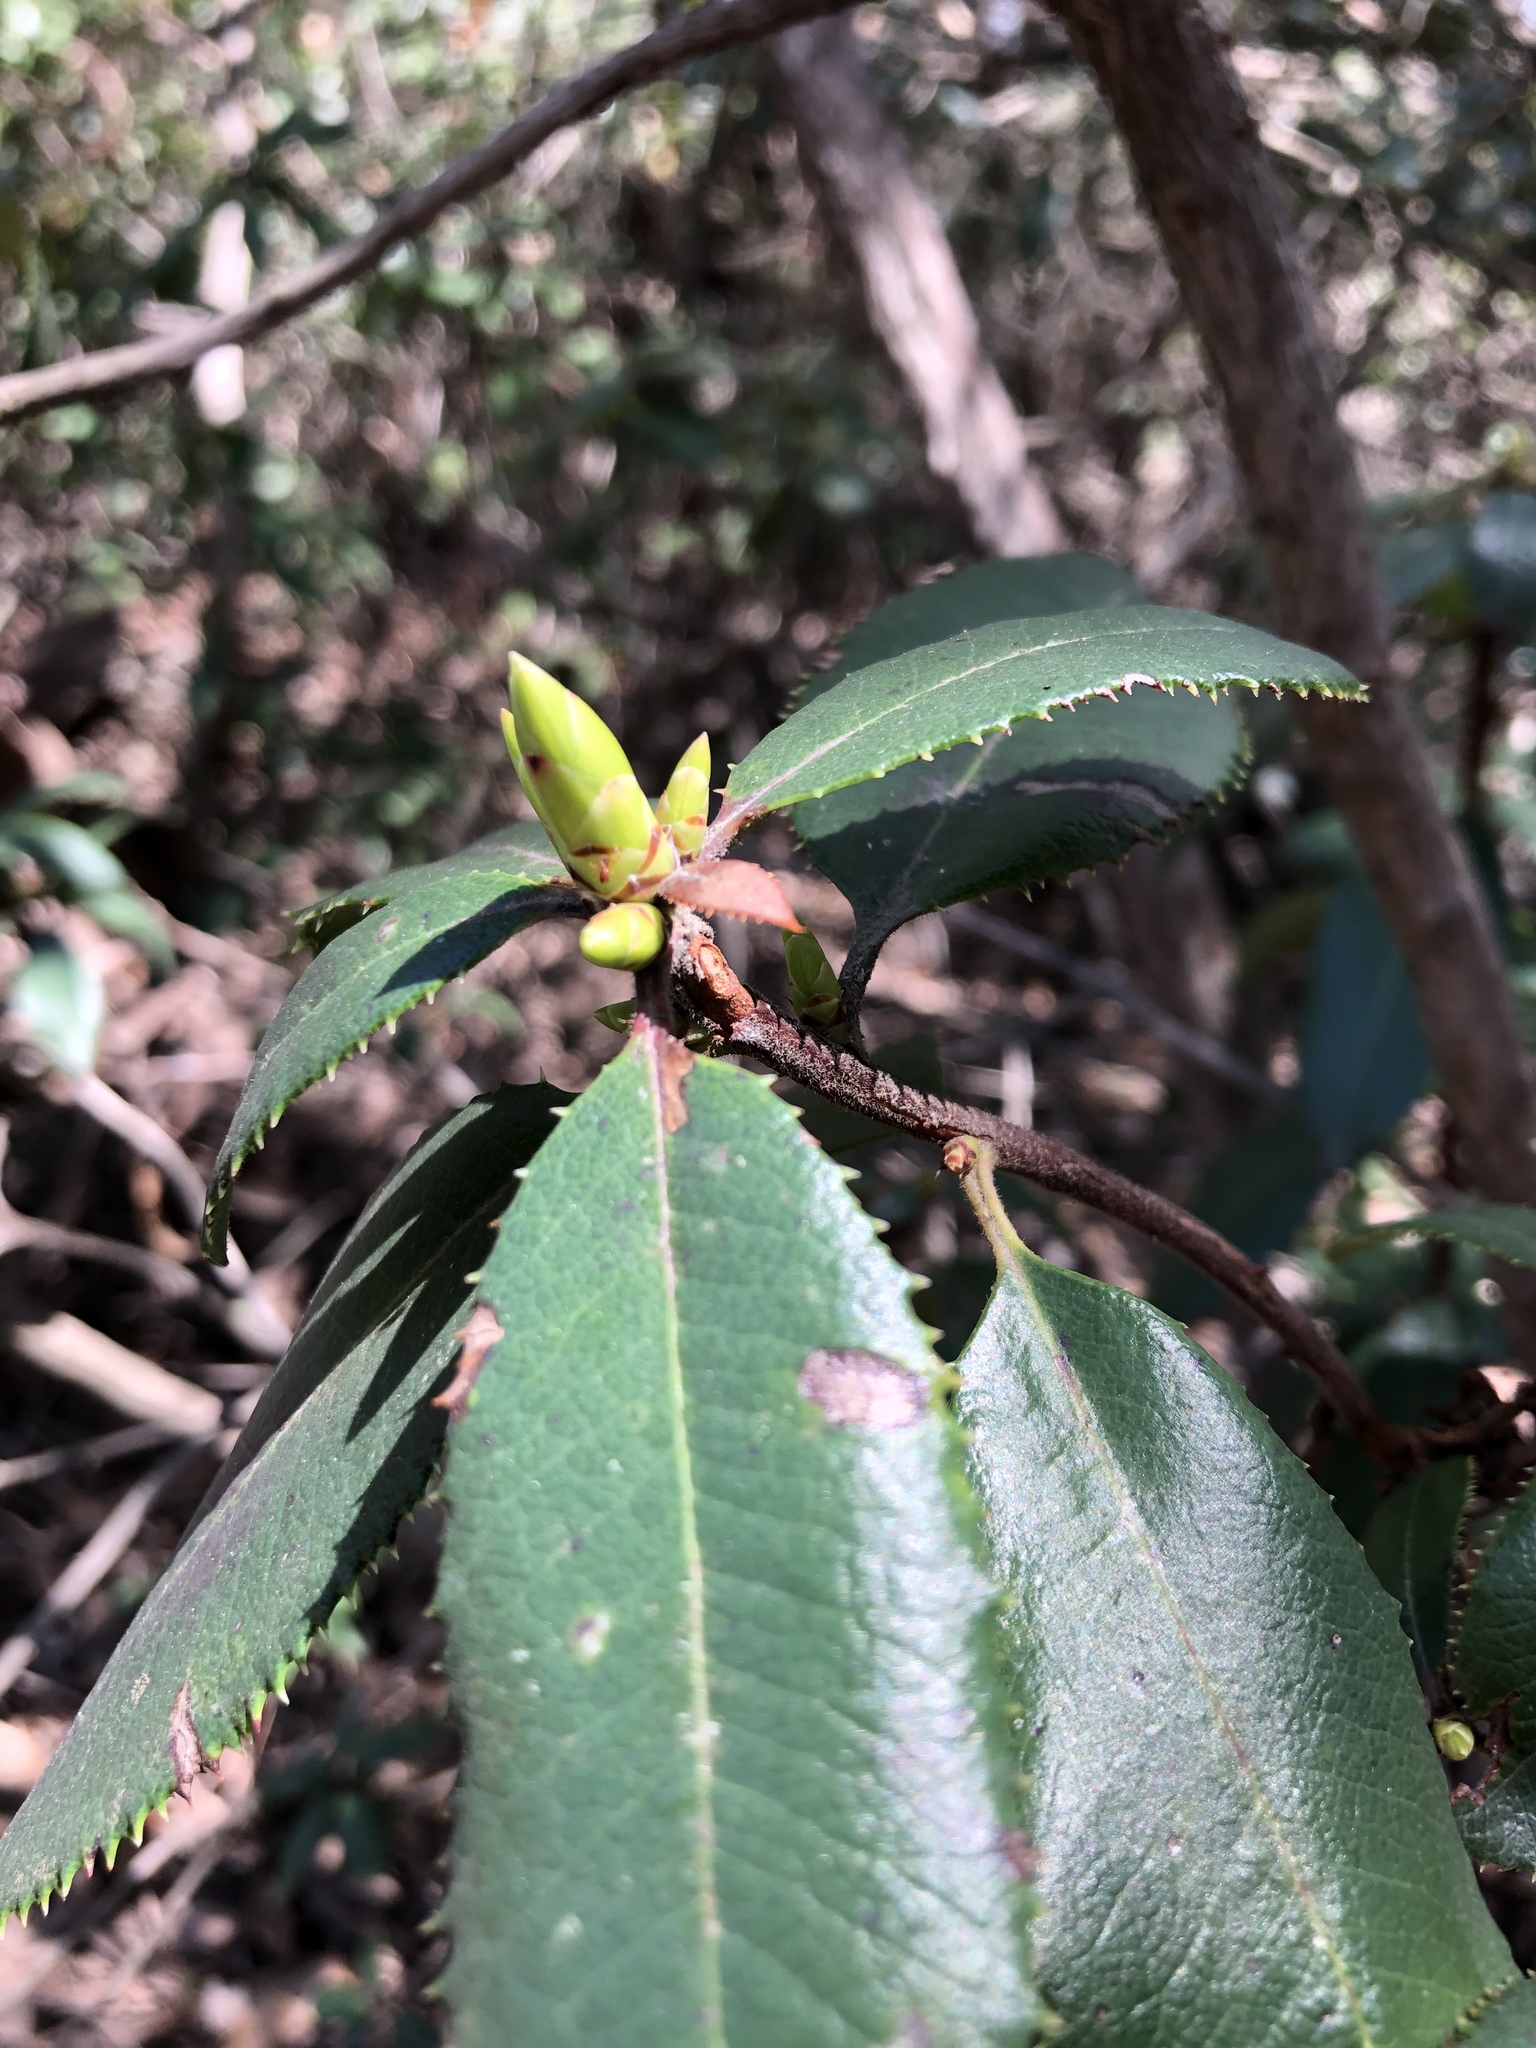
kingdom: Plantae
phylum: Tracheophyta
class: Magnoliopsida
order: Ericales
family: Ericaceae
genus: Comarostaphylis
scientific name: Comarostaphylis diversifolia
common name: Summer-holly
